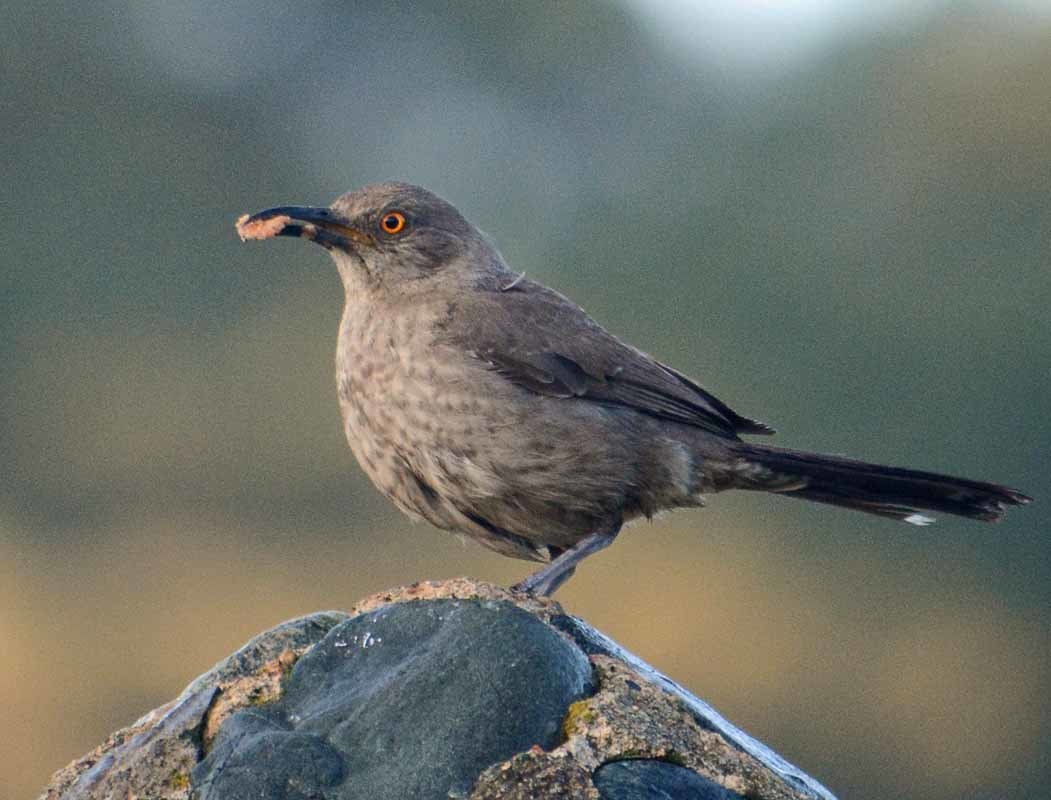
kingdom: Animalia
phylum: Chordata
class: Aves
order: Passeriformes
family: Mimidae
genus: Toxostoma
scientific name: Toxostoma curvirostre
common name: Curve-billed thrasher
